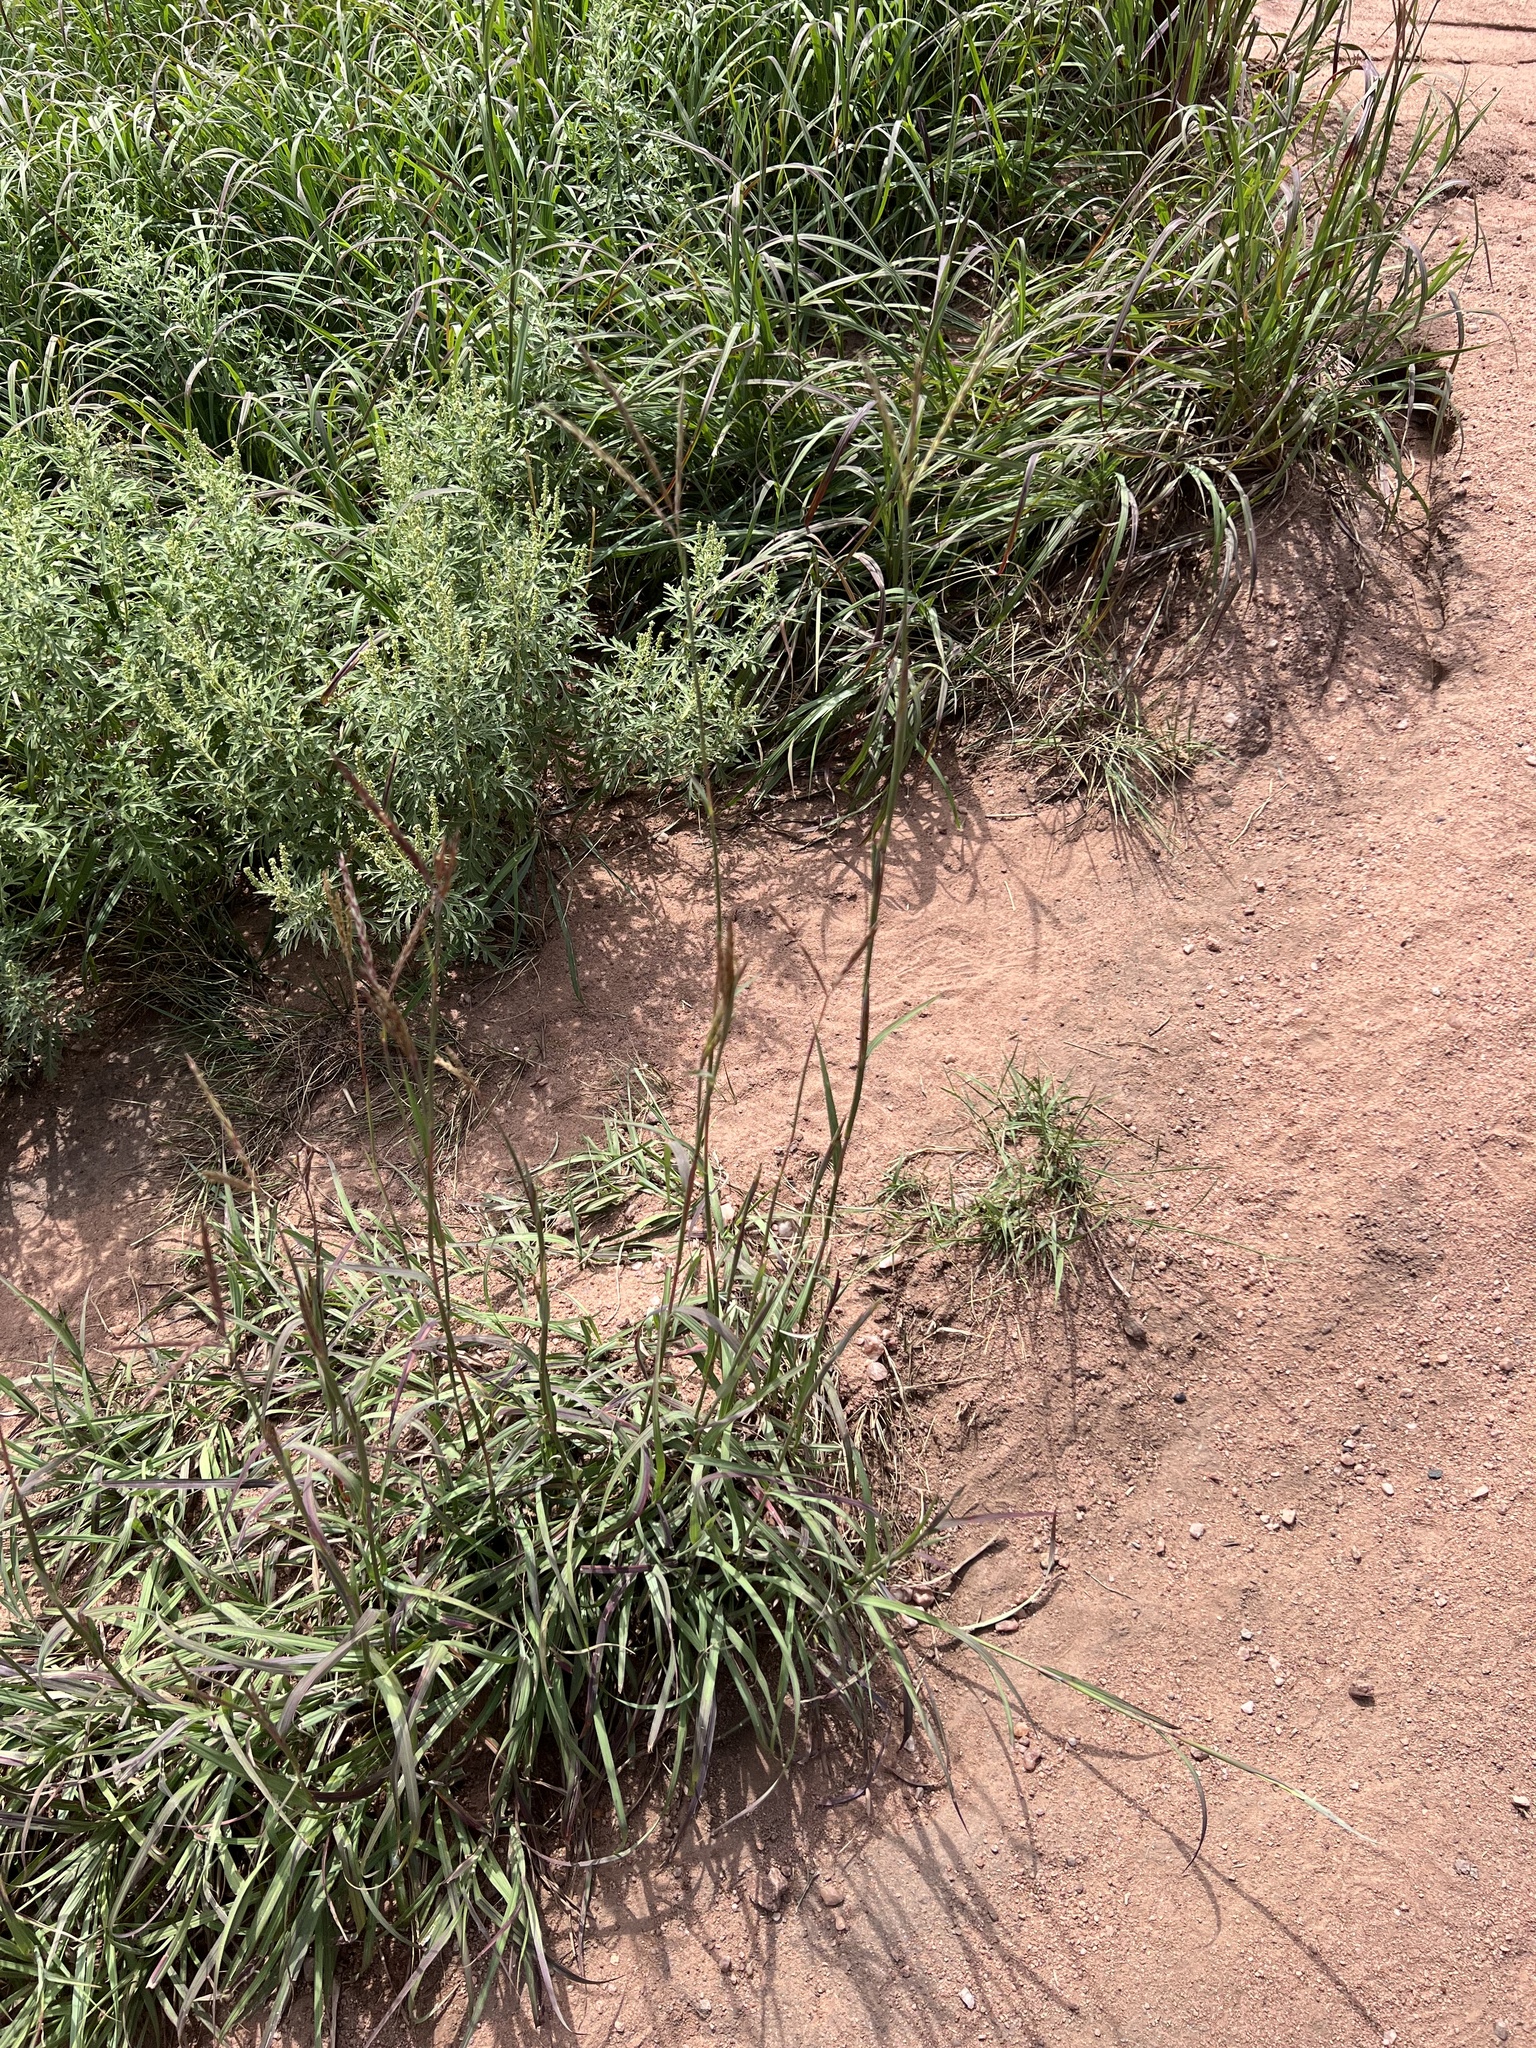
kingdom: Plantae
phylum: Tracheophyta
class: Liliopsida
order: Poales
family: Poaceae
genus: Andropogon
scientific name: Andropogon gerardi
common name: Big bluestem
